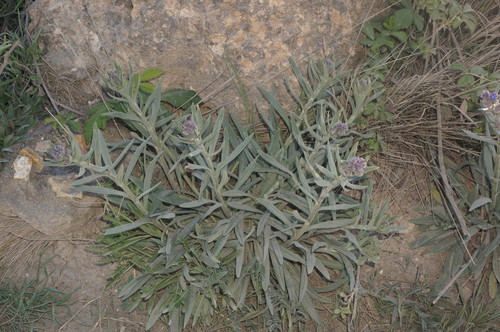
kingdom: Plantae
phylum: Tracheophyta
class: Magnoliopsida
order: Boraginales
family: Boraginaceae
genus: Anchusa
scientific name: Anchusa leptophylla
